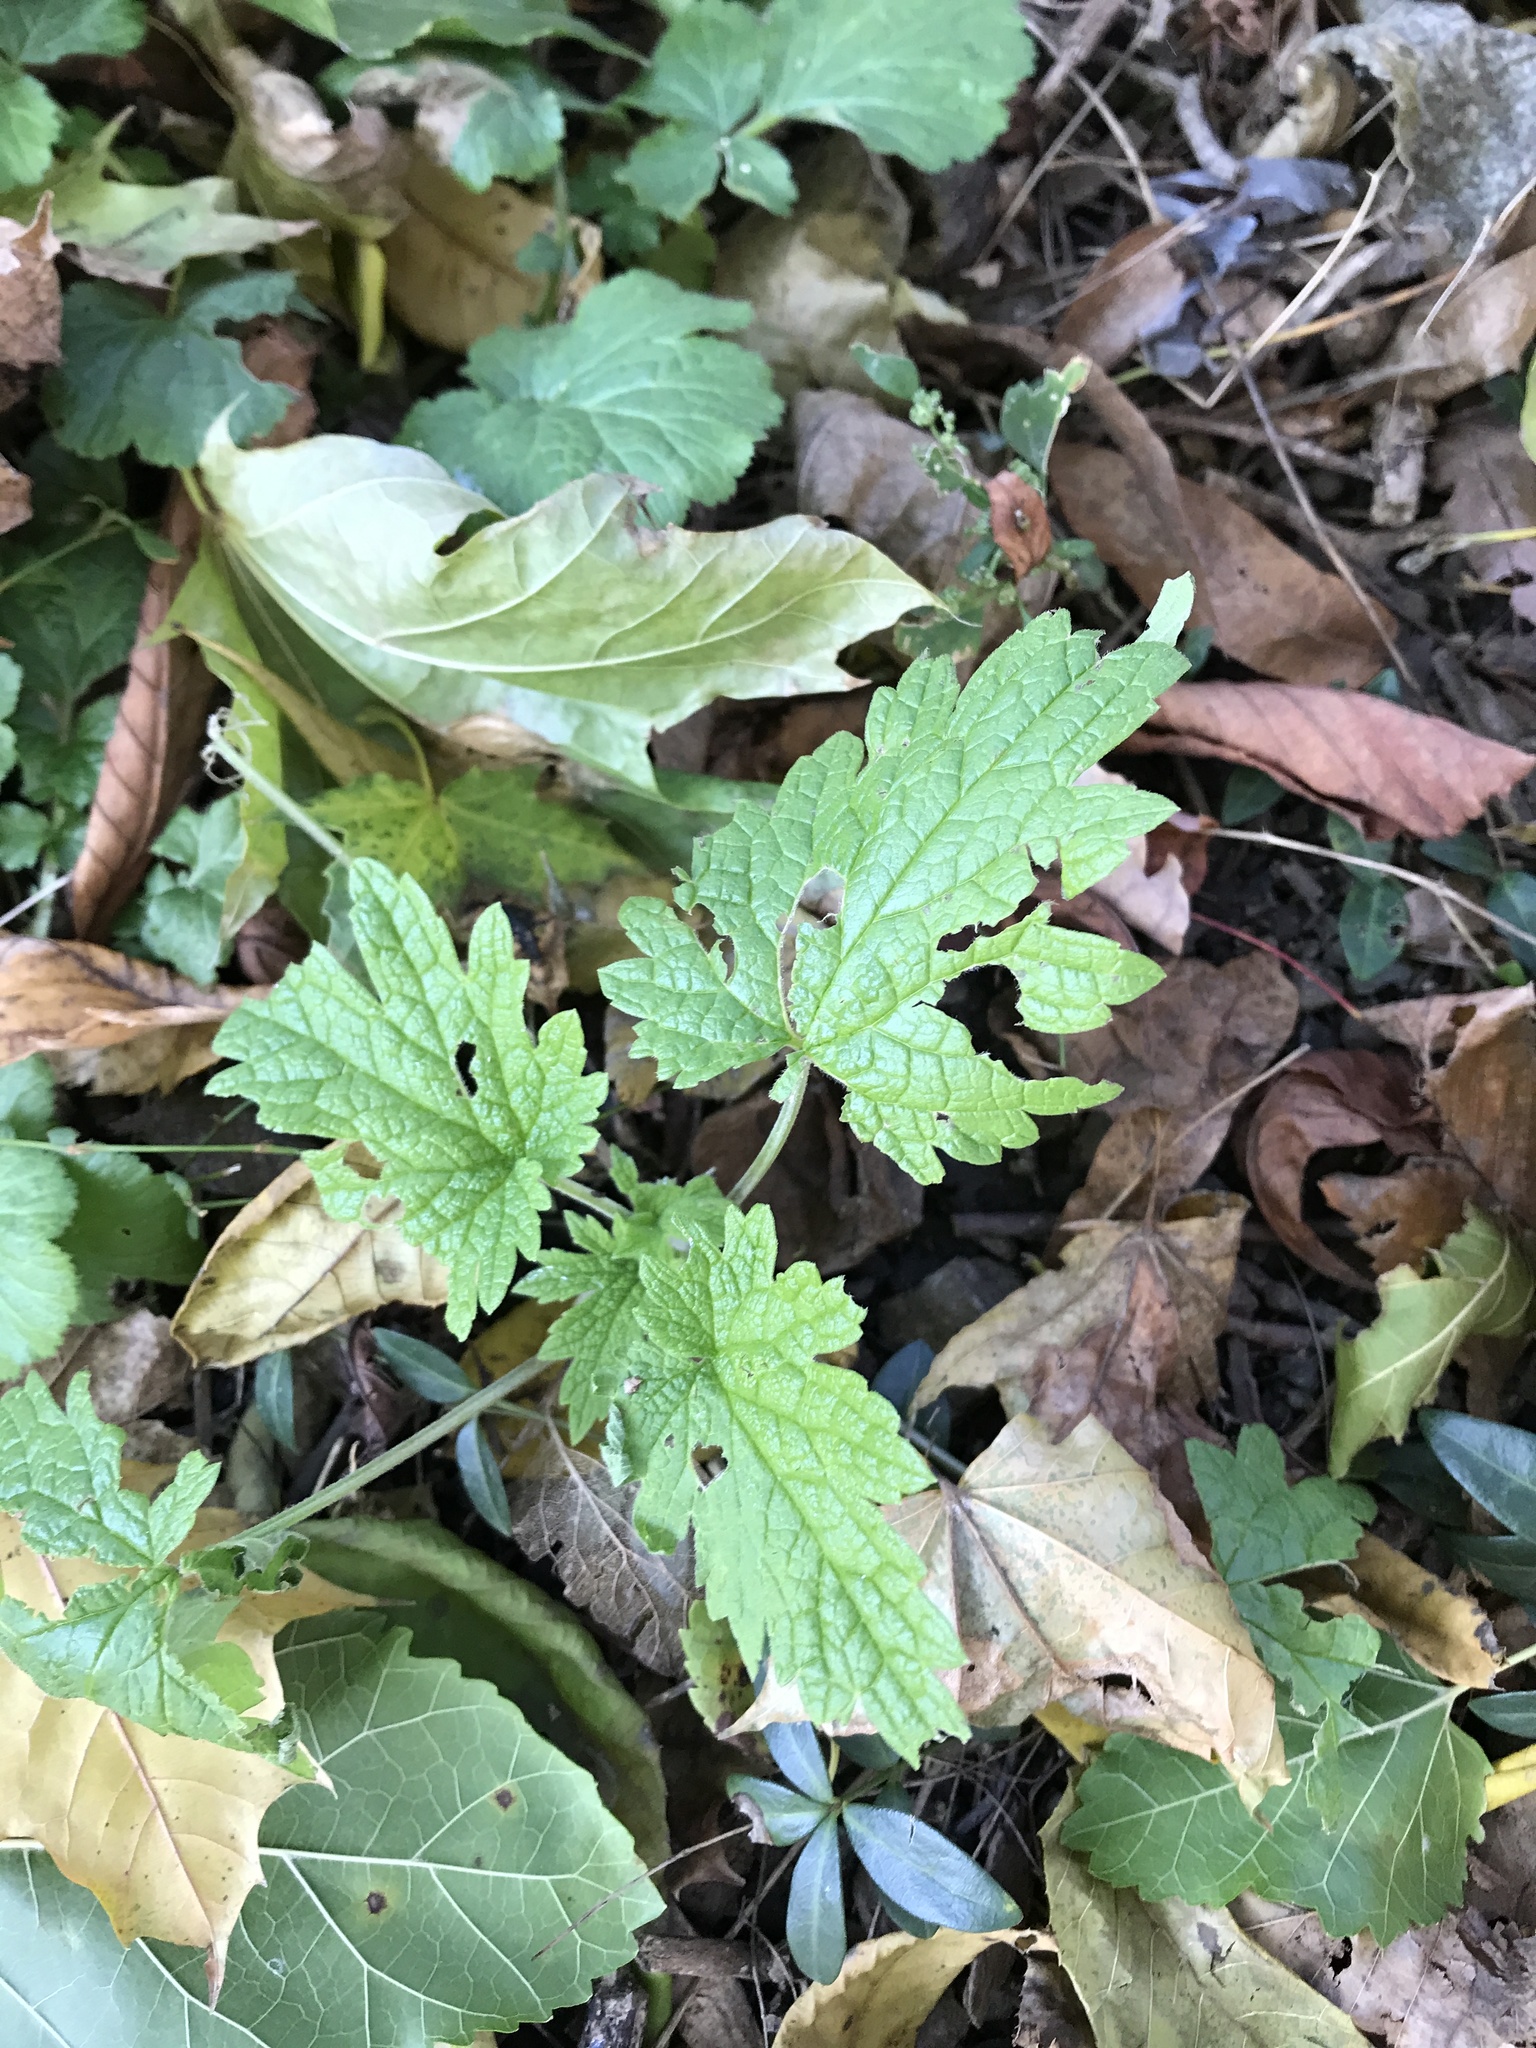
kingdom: Plantae
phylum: Tracheophyta
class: Magnoliopsida
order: Lamiales
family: Lamiaceae
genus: Leonurus
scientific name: Leonurus cardiaca
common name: Motherwort
